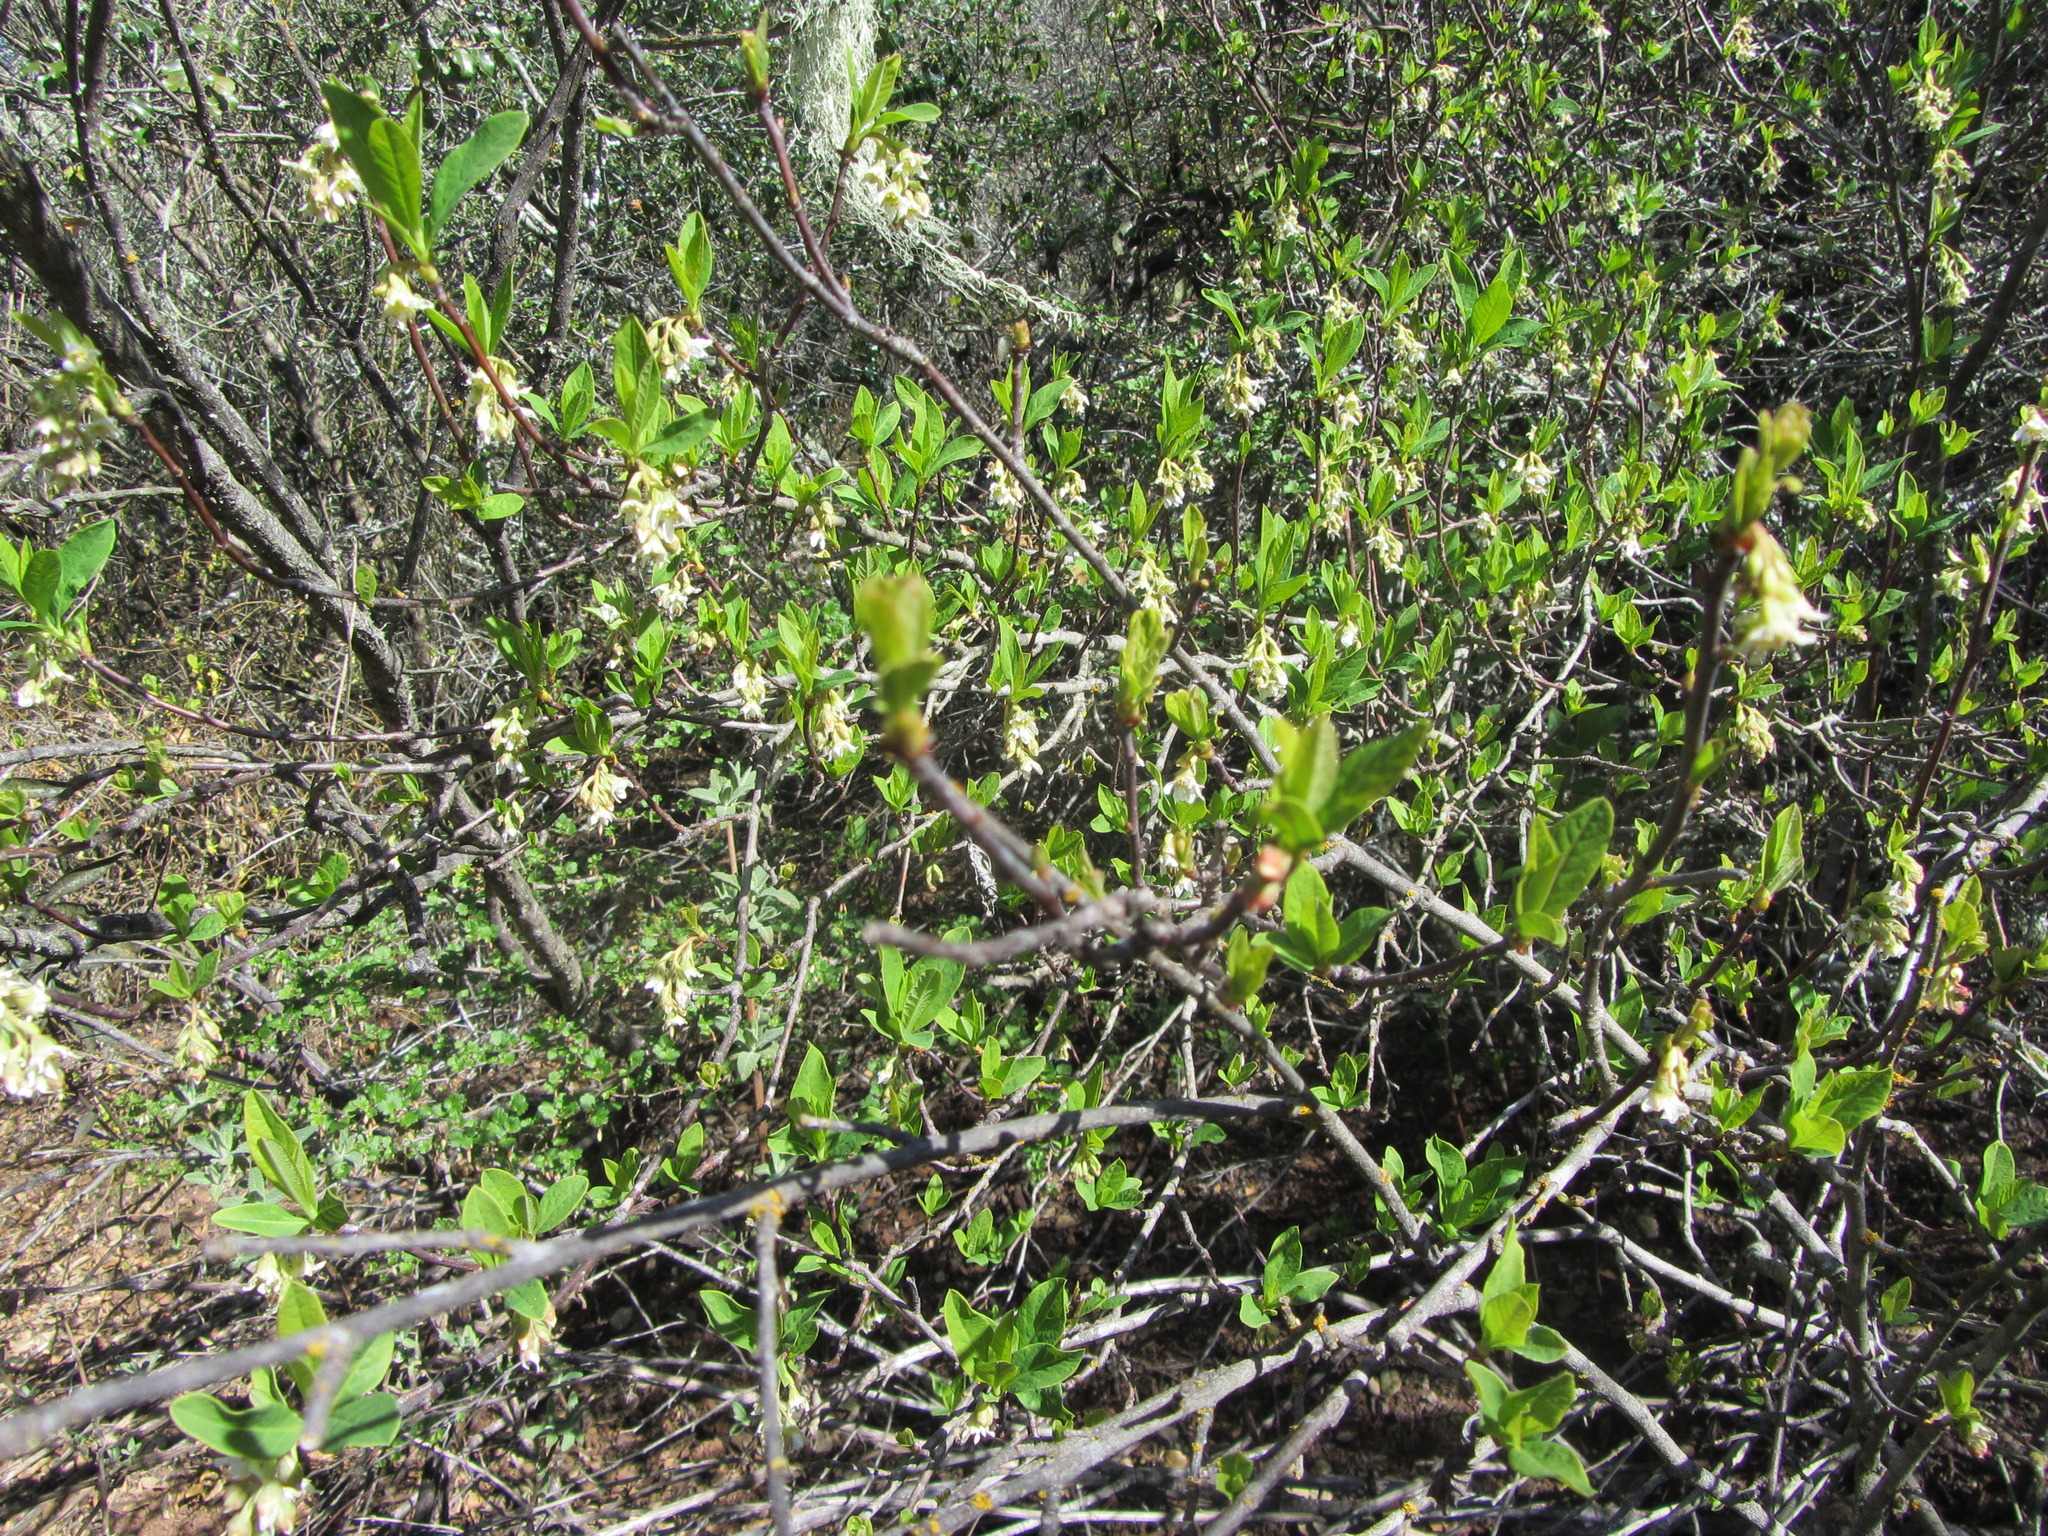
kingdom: Plantae
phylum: Tracheophyta
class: Magnoliopsida
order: Rosales
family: Rosaceae
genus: Oemleria
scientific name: Oemleria cerasiformis
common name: Osoberry
